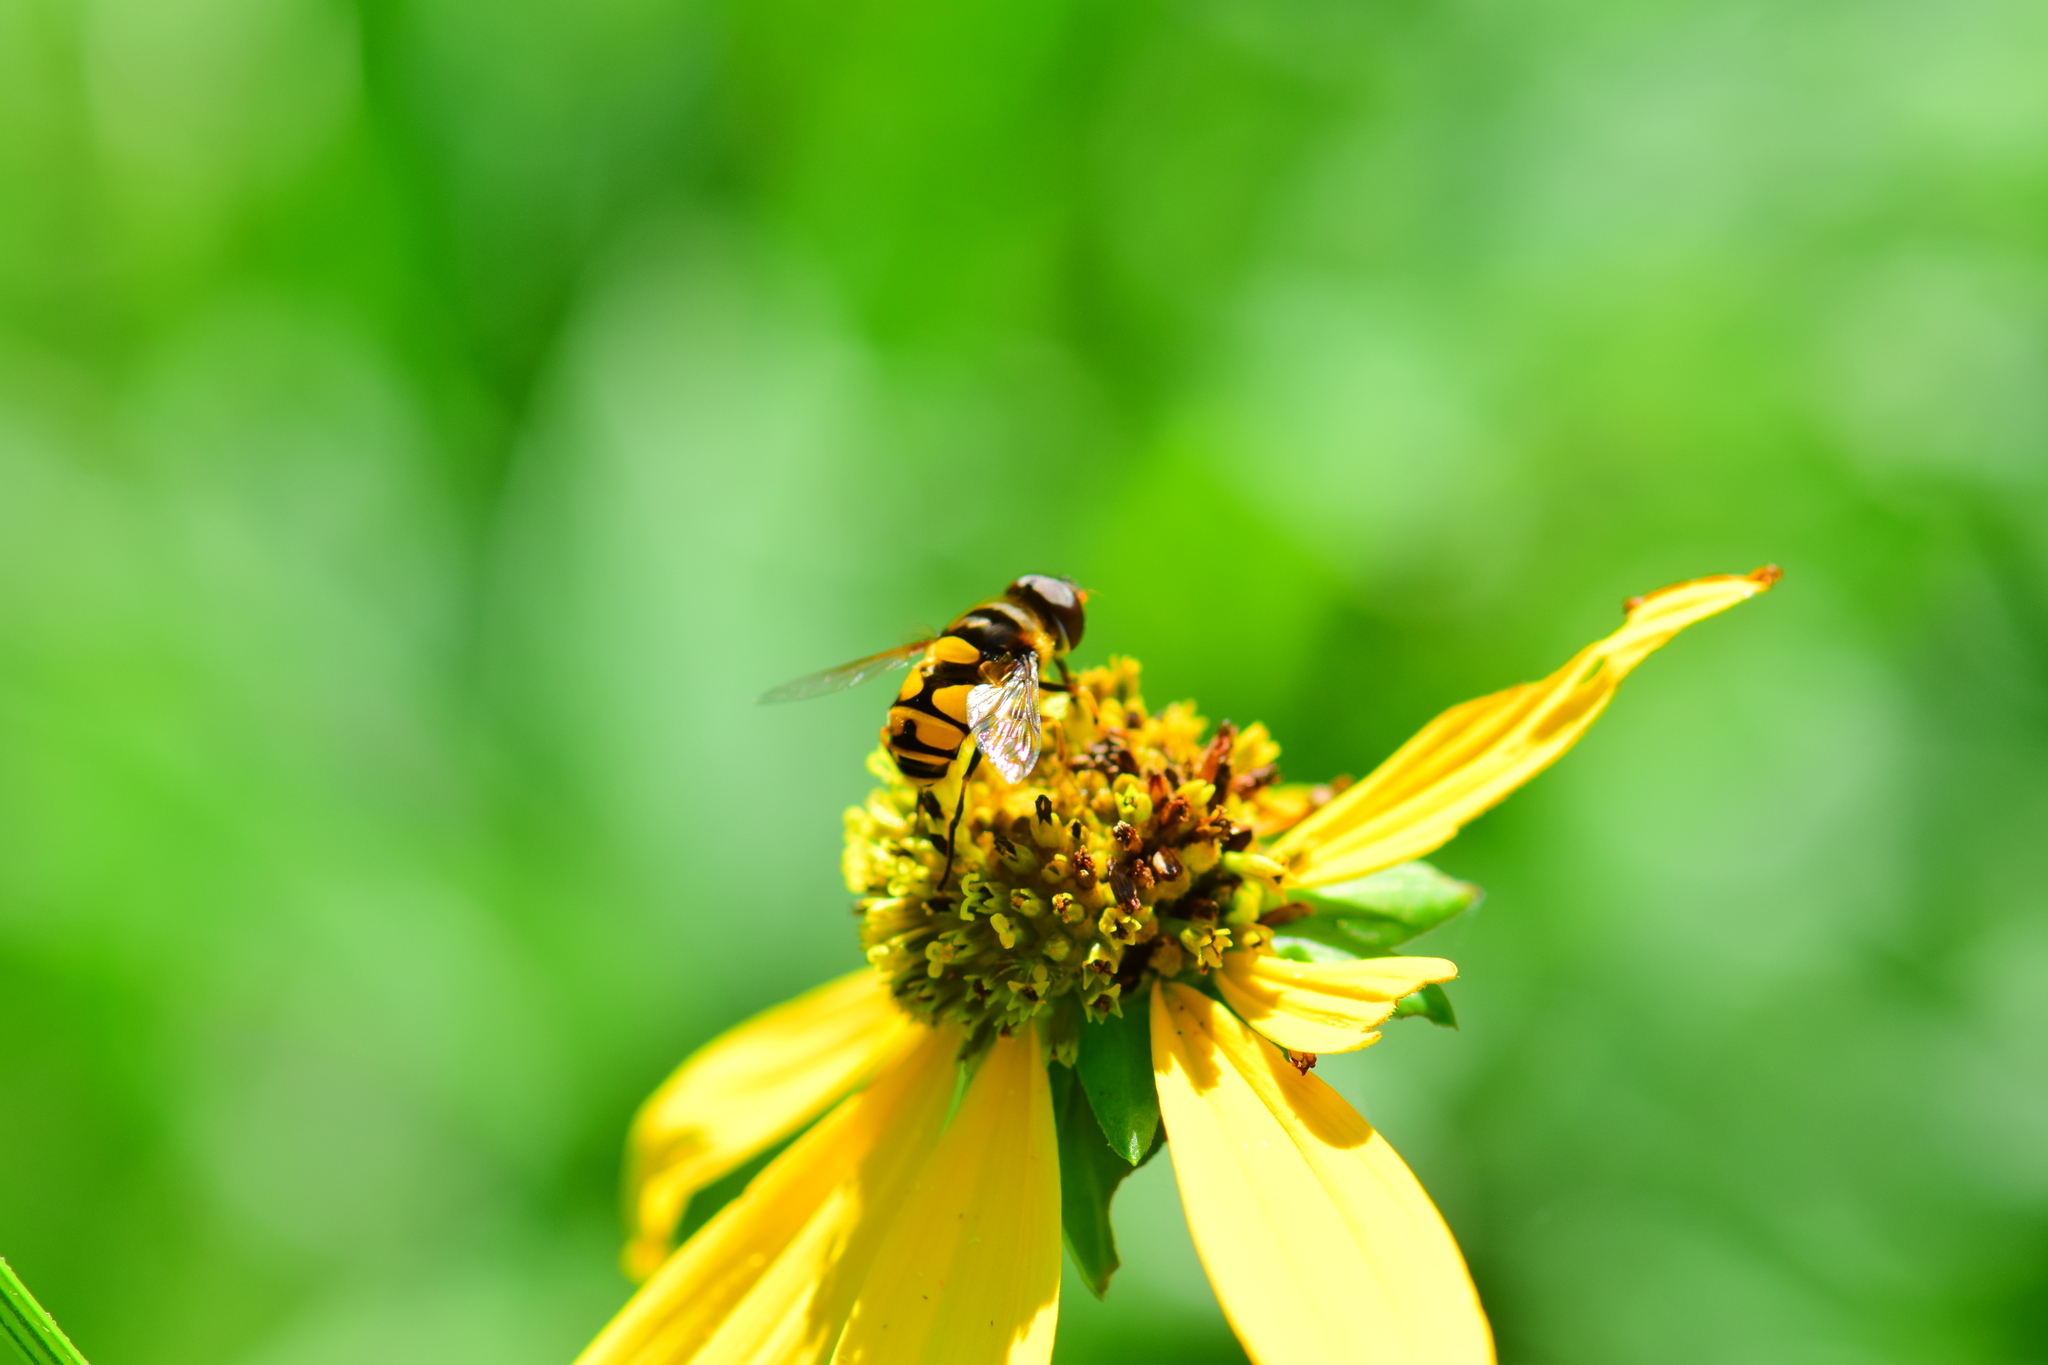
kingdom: Animalia
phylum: Arthropoda
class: Insecta
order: Diptera
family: Syrphidae
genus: Eristalis
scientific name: Eristalis transversa
